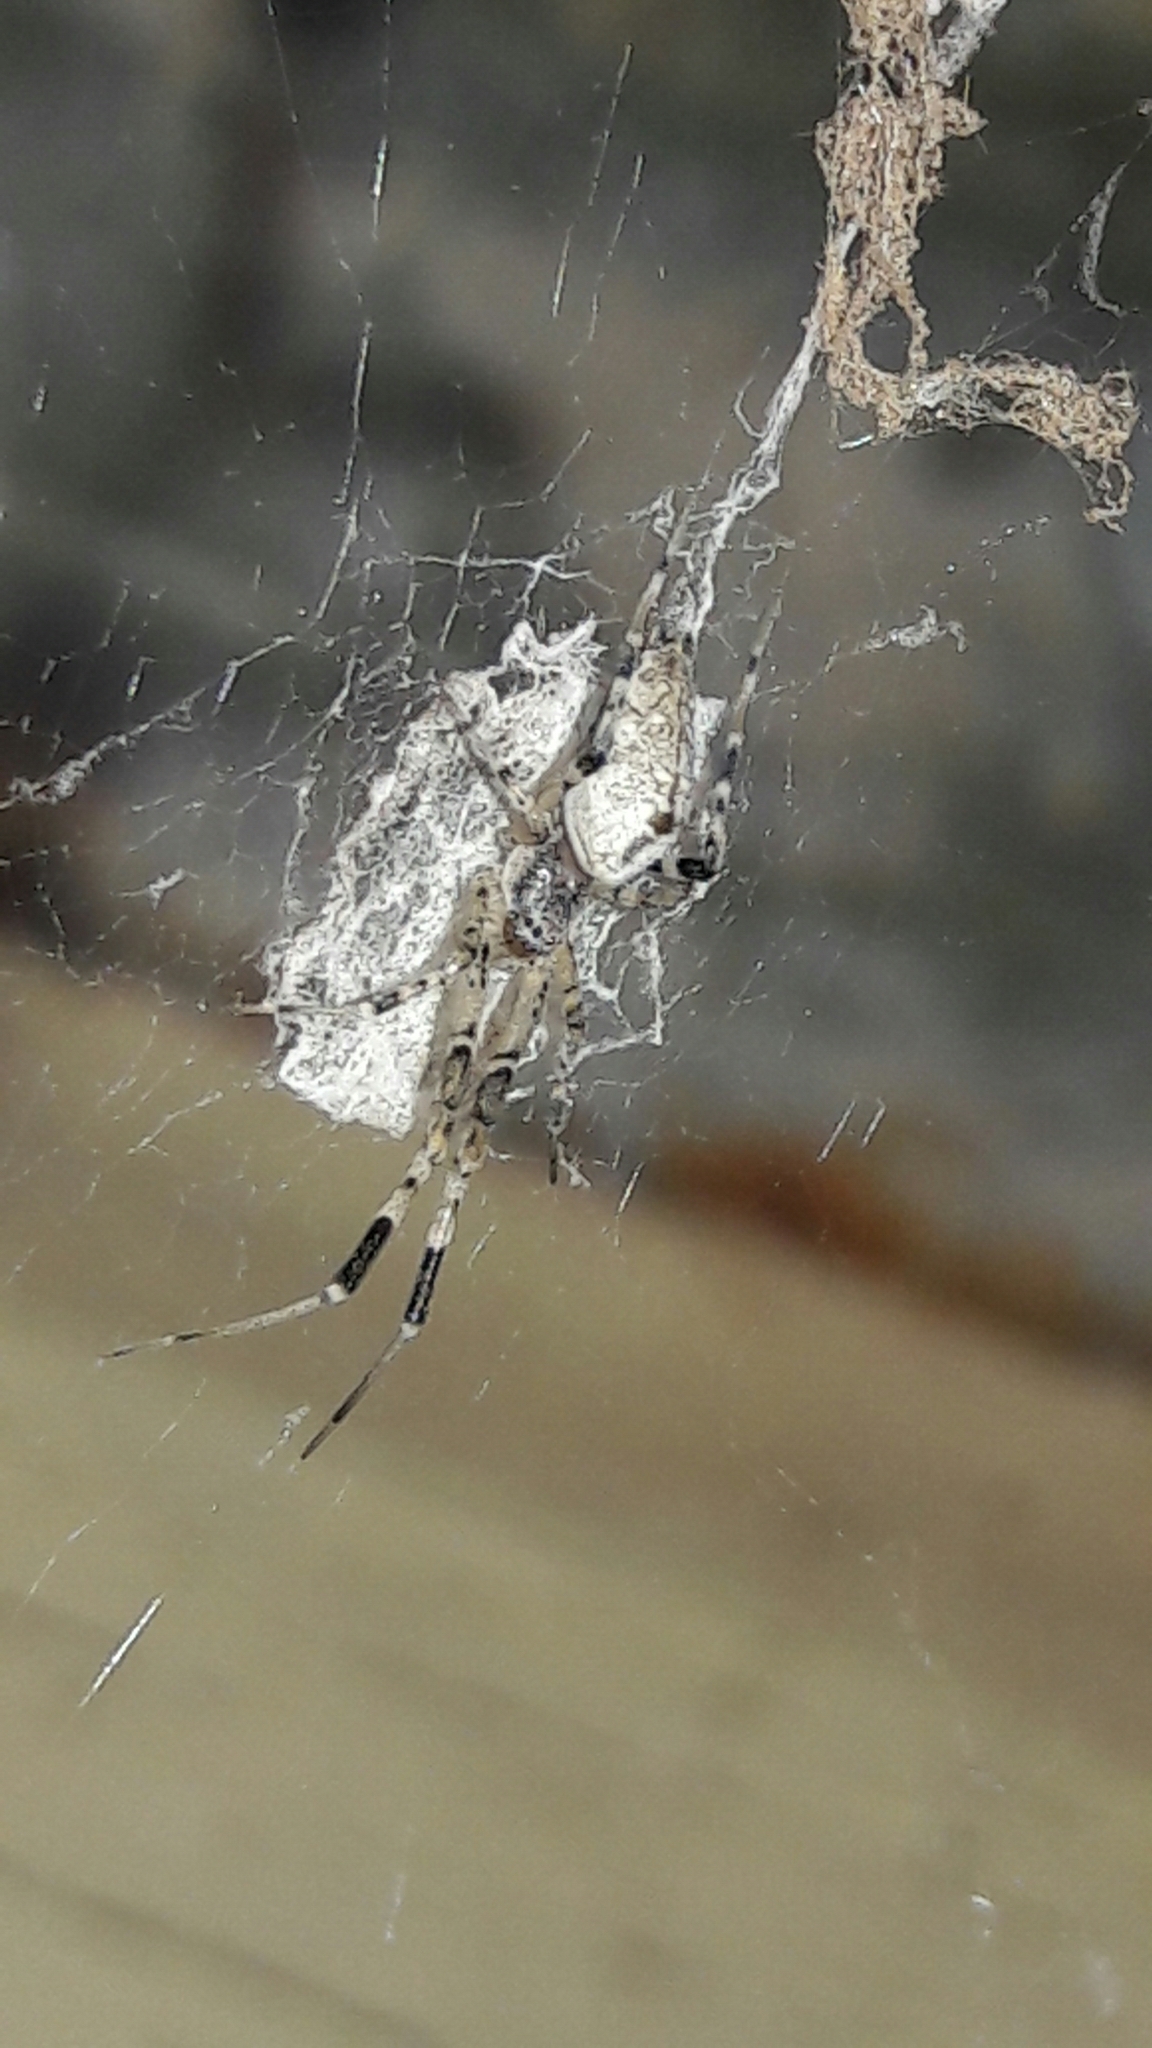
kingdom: Animalia
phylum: Arthropoda
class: Arachnida
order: Araneae
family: Uloboridae
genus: Zosis
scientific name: Zosis geniculata
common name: Hackled orb weavers
